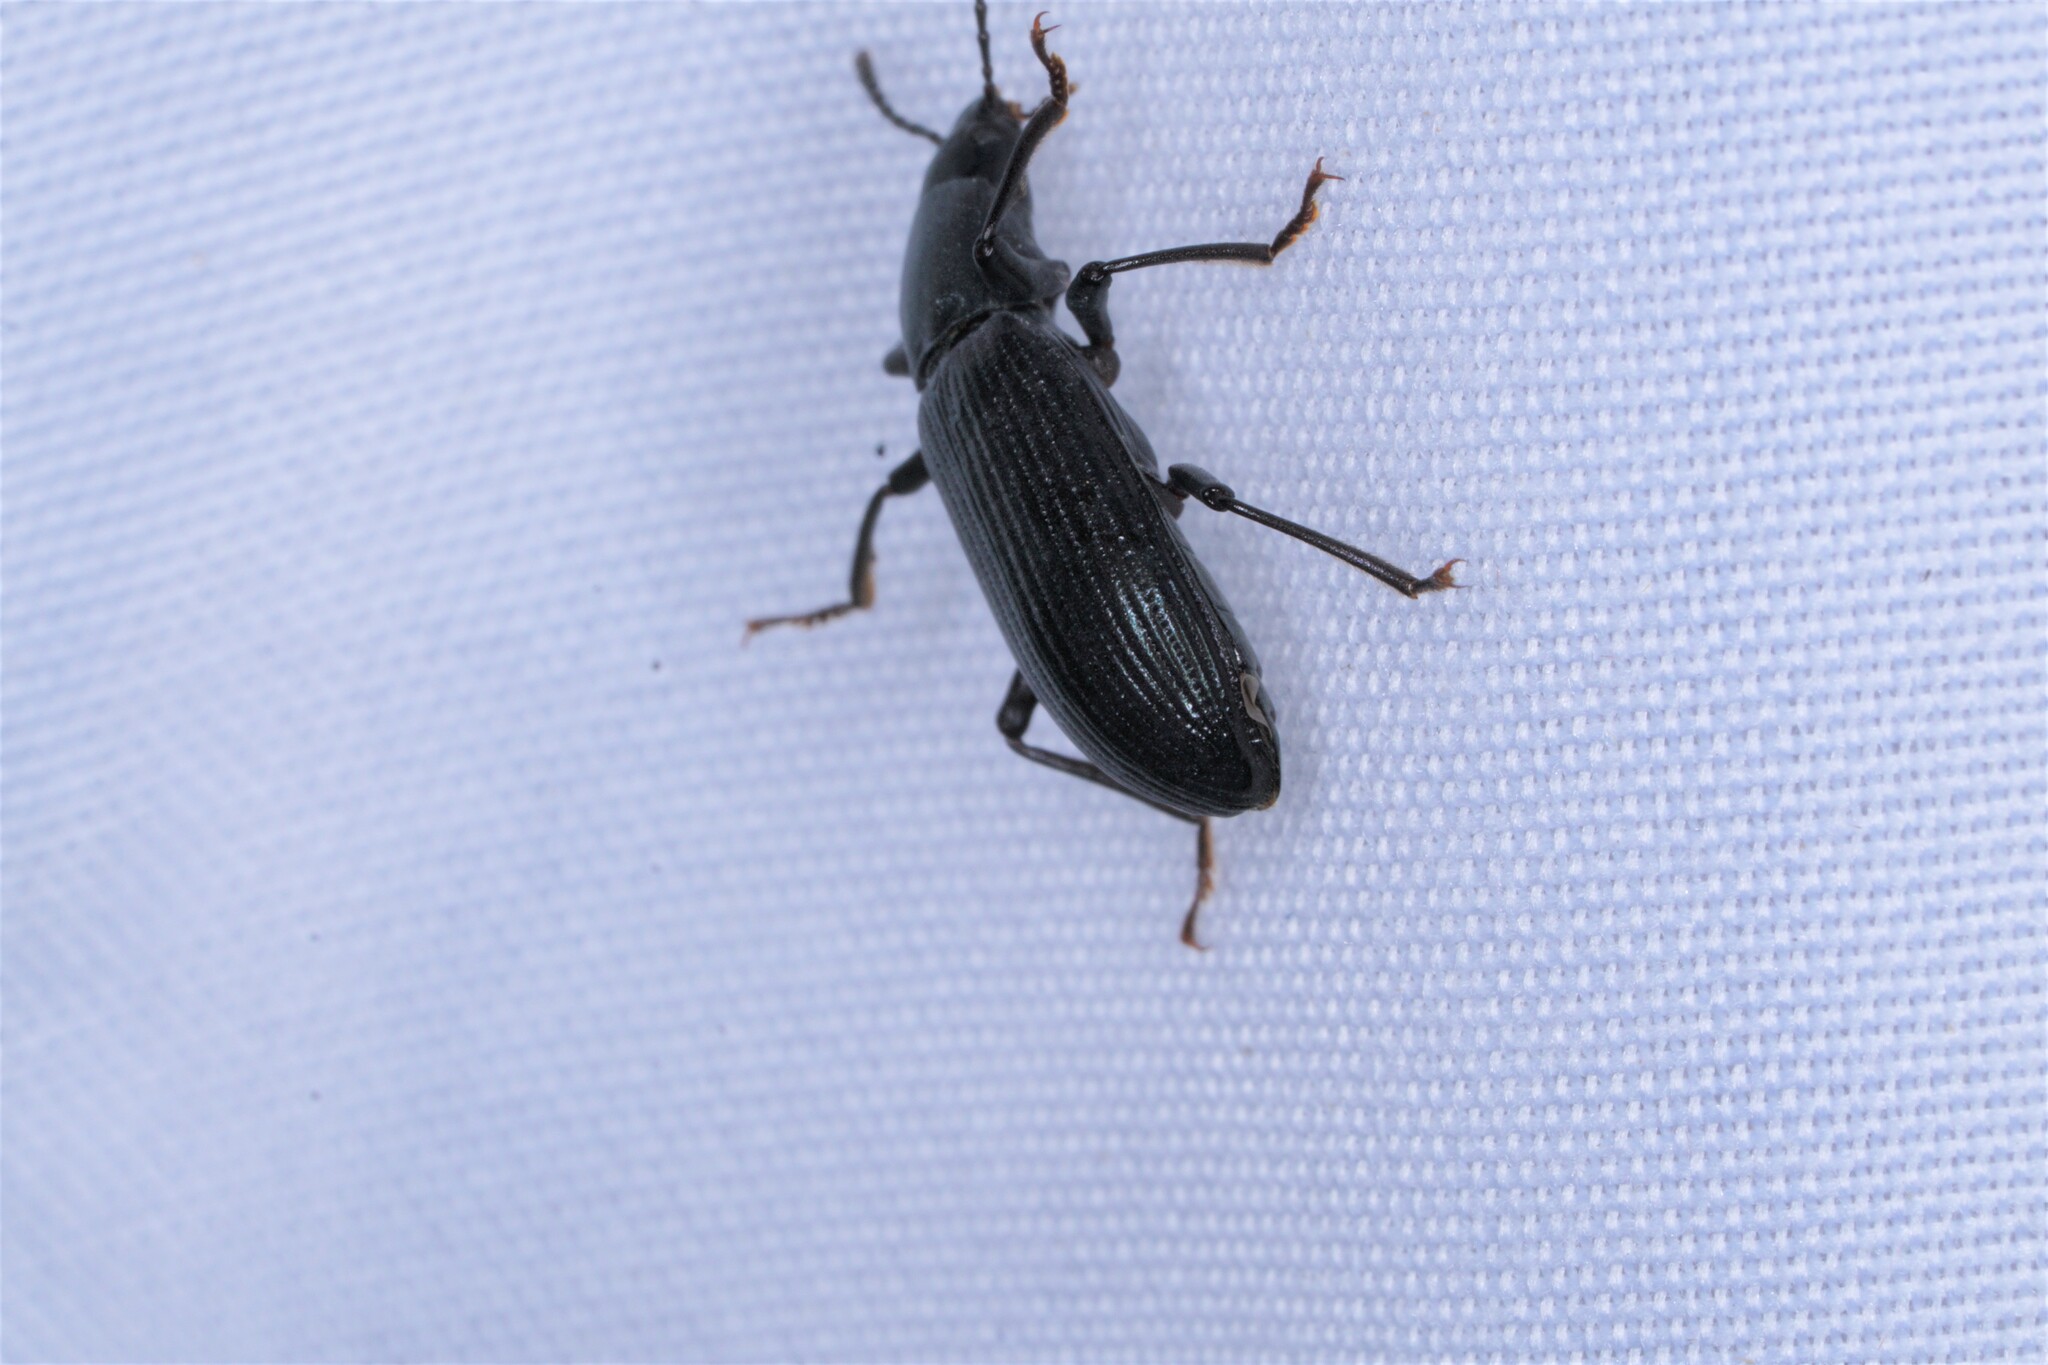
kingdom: Animalia
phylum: Arthropoda
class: Insecta
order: Coleoptera
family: Tenebrionidae
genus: Xylopinus
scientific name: Xylopinus saperdoides
